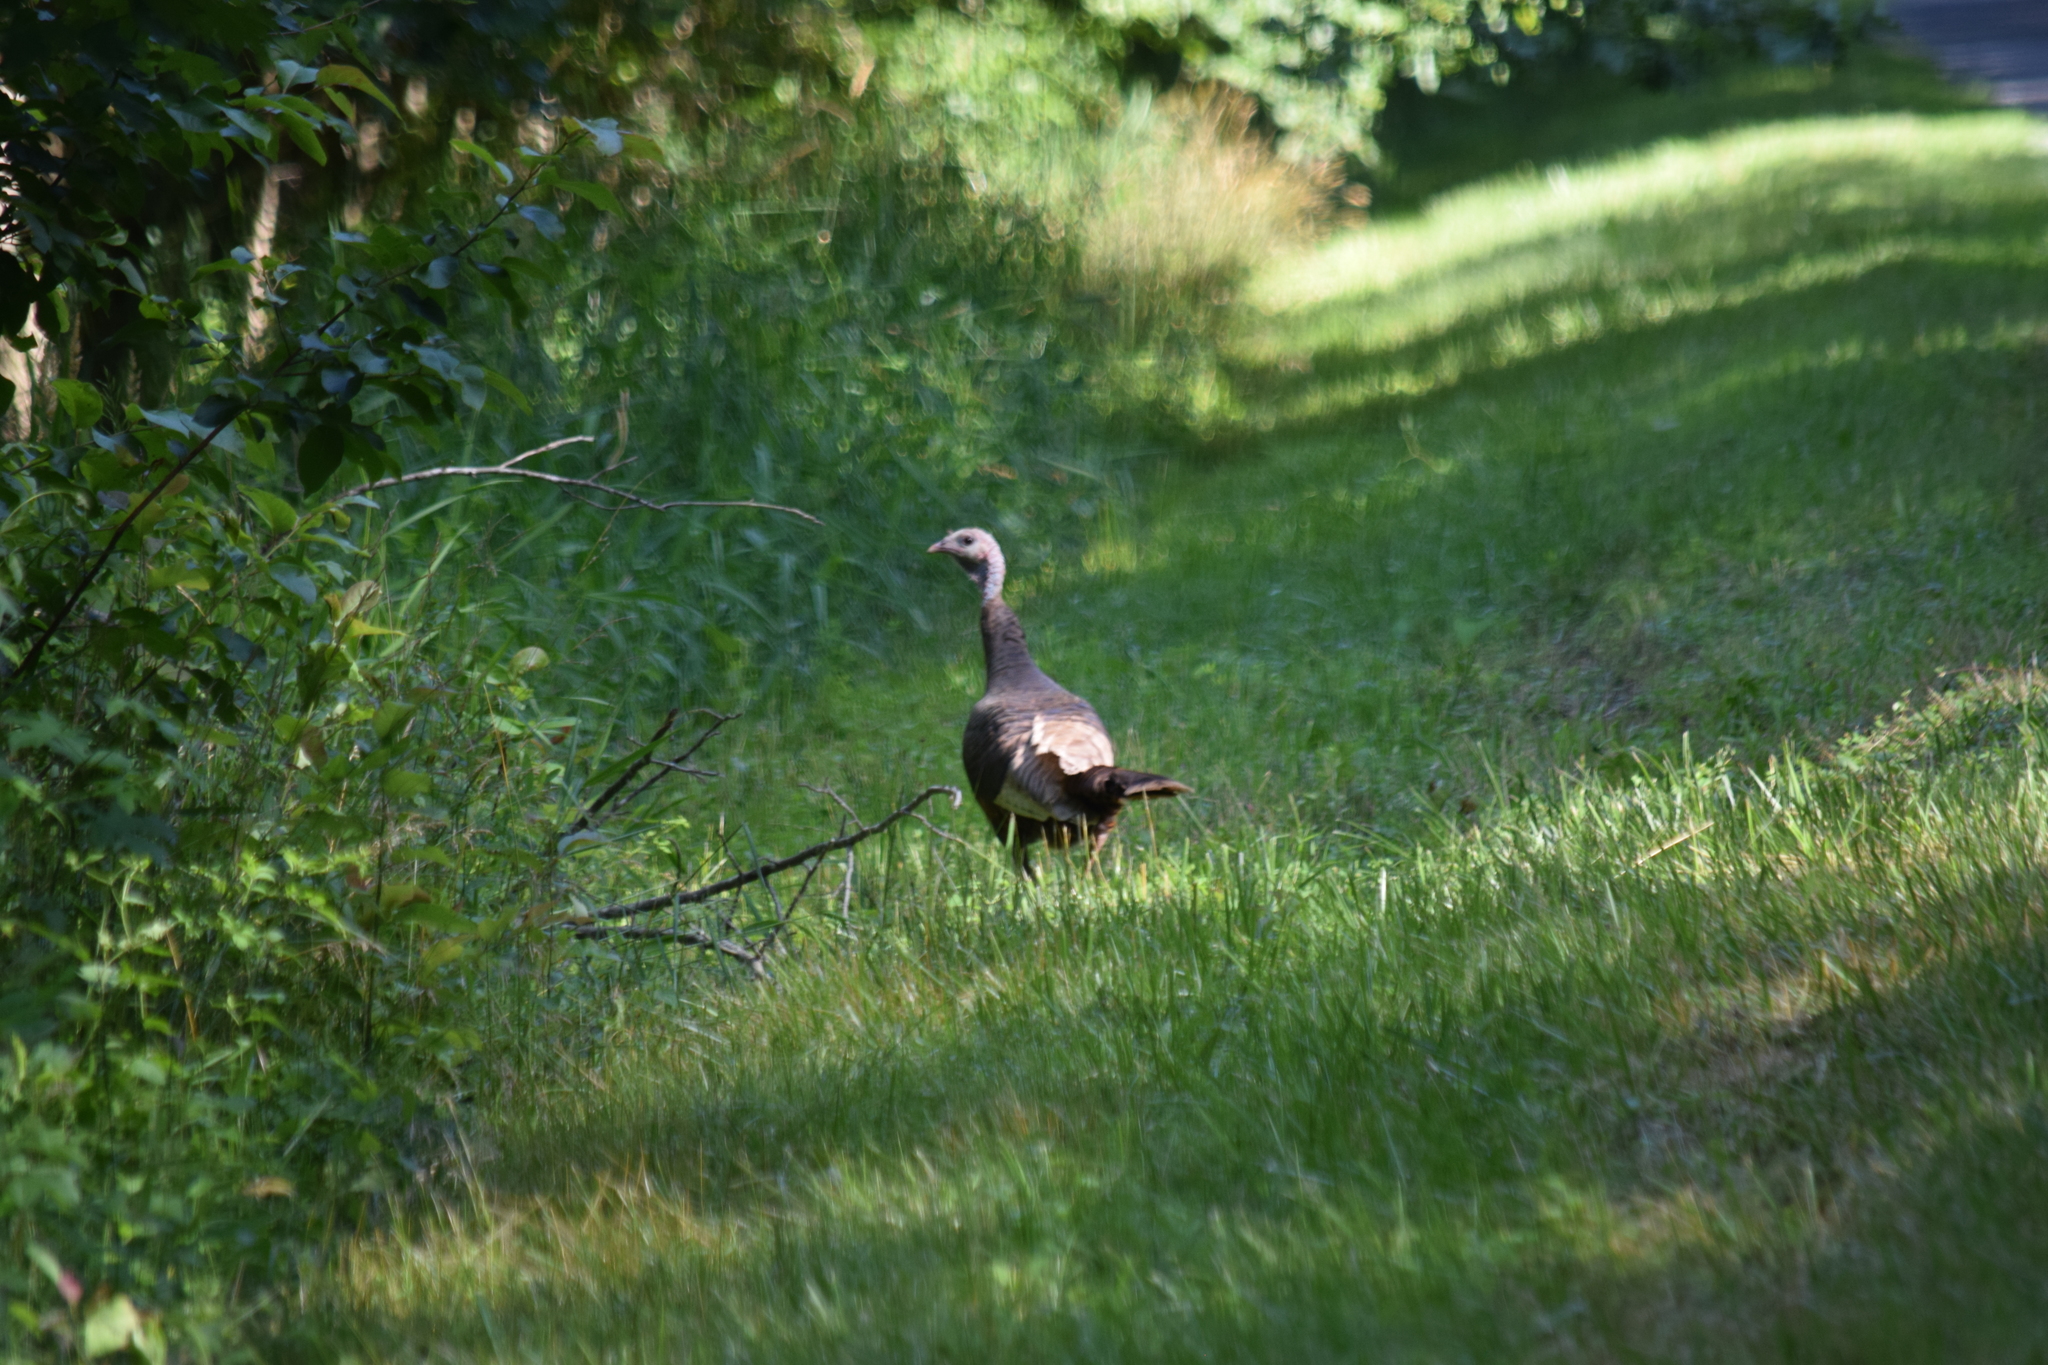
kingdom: Animalia
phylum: Chordata
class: Aves
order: Galliformes
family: Phasianidae
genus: Meleagris
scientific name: Meleagris gallopavo
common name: Wild turkey
